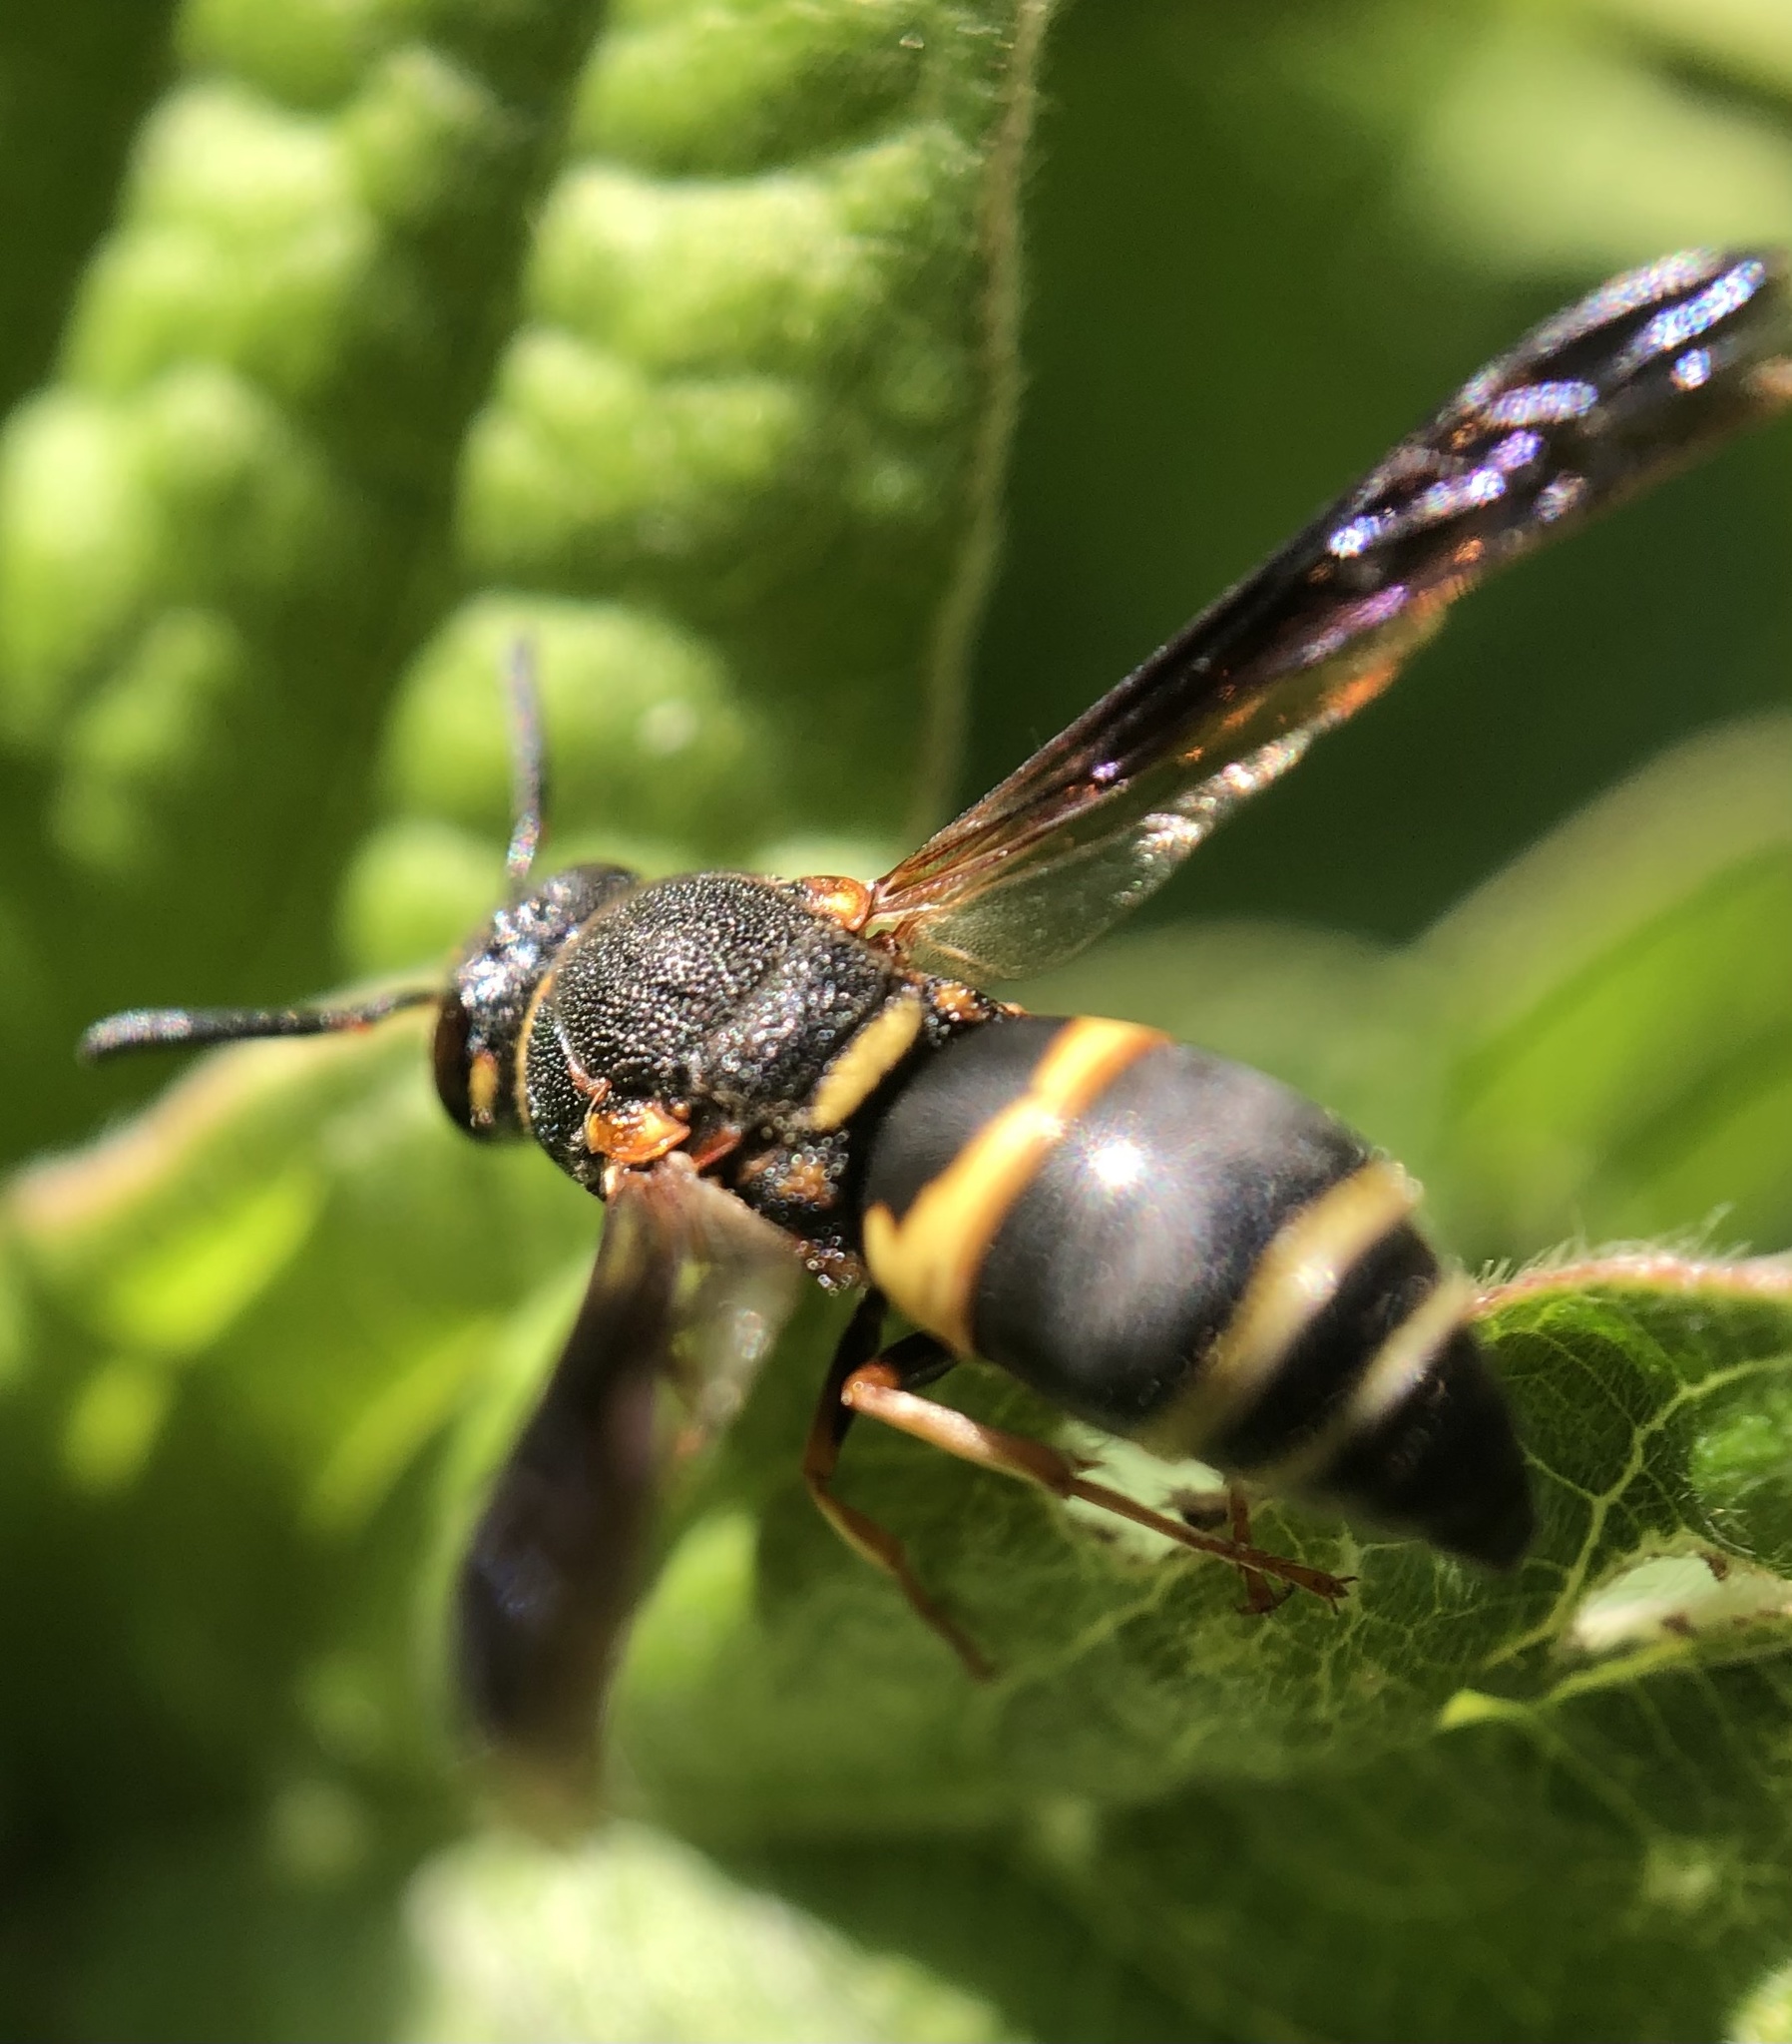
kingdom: Animalia
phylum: Arthropoda
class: Insecta
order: Hymenoptera
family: Eumenidae
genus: Euodynerus
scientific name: Euodynerus hidalgo
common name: Wasp
